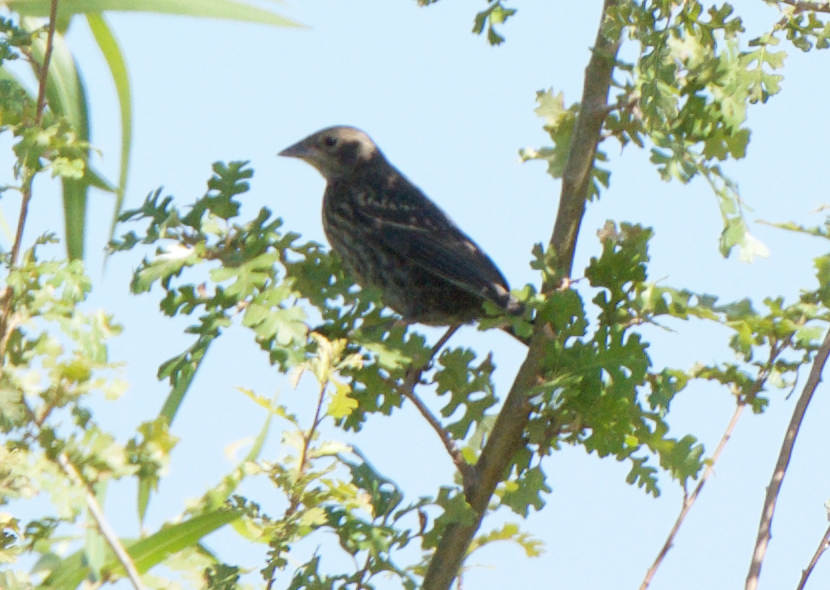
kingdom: Animalia
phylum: Chordata
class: Aves
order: Passeriformes
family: Icteridae
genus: Agelaius
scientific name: Agelaius phoeniceus
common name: Red-winged blackbird
